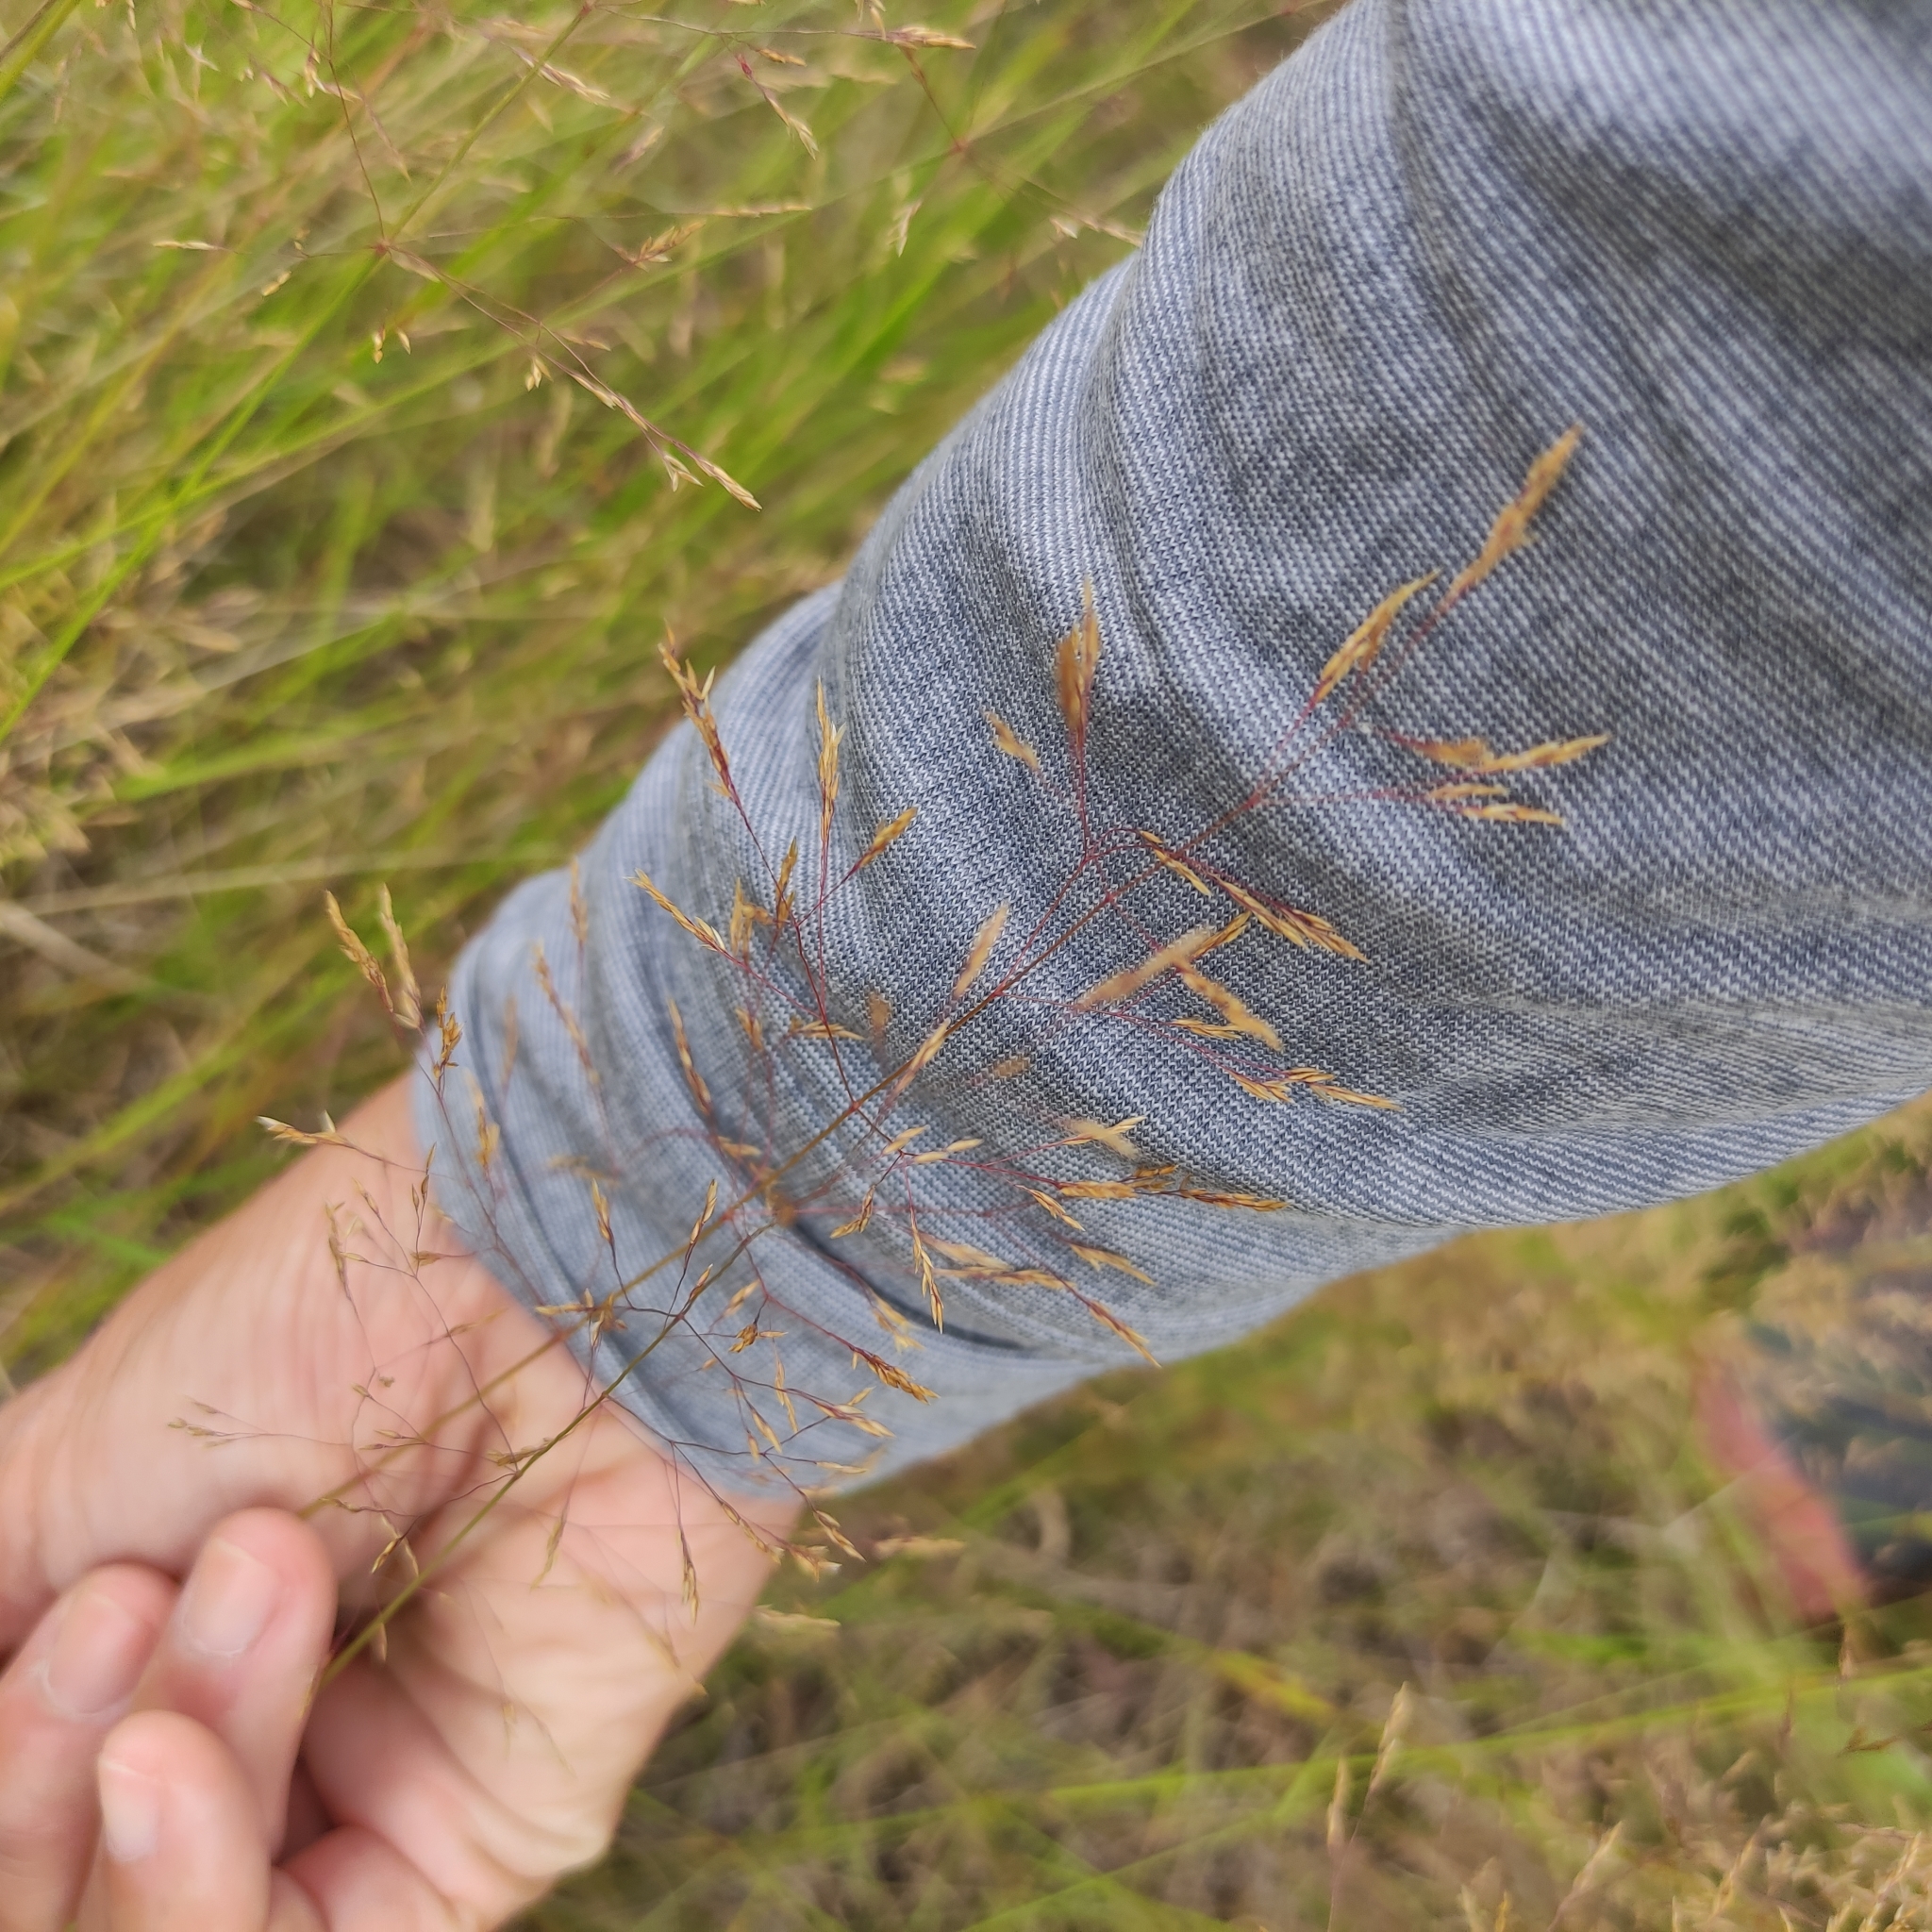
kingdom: Plantae
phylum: Tracheophyta
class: Liliopsida
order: Poales
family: Poaceae
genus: Agrostis
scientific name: Agrostis capillaris
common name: Colonial bentgrass
